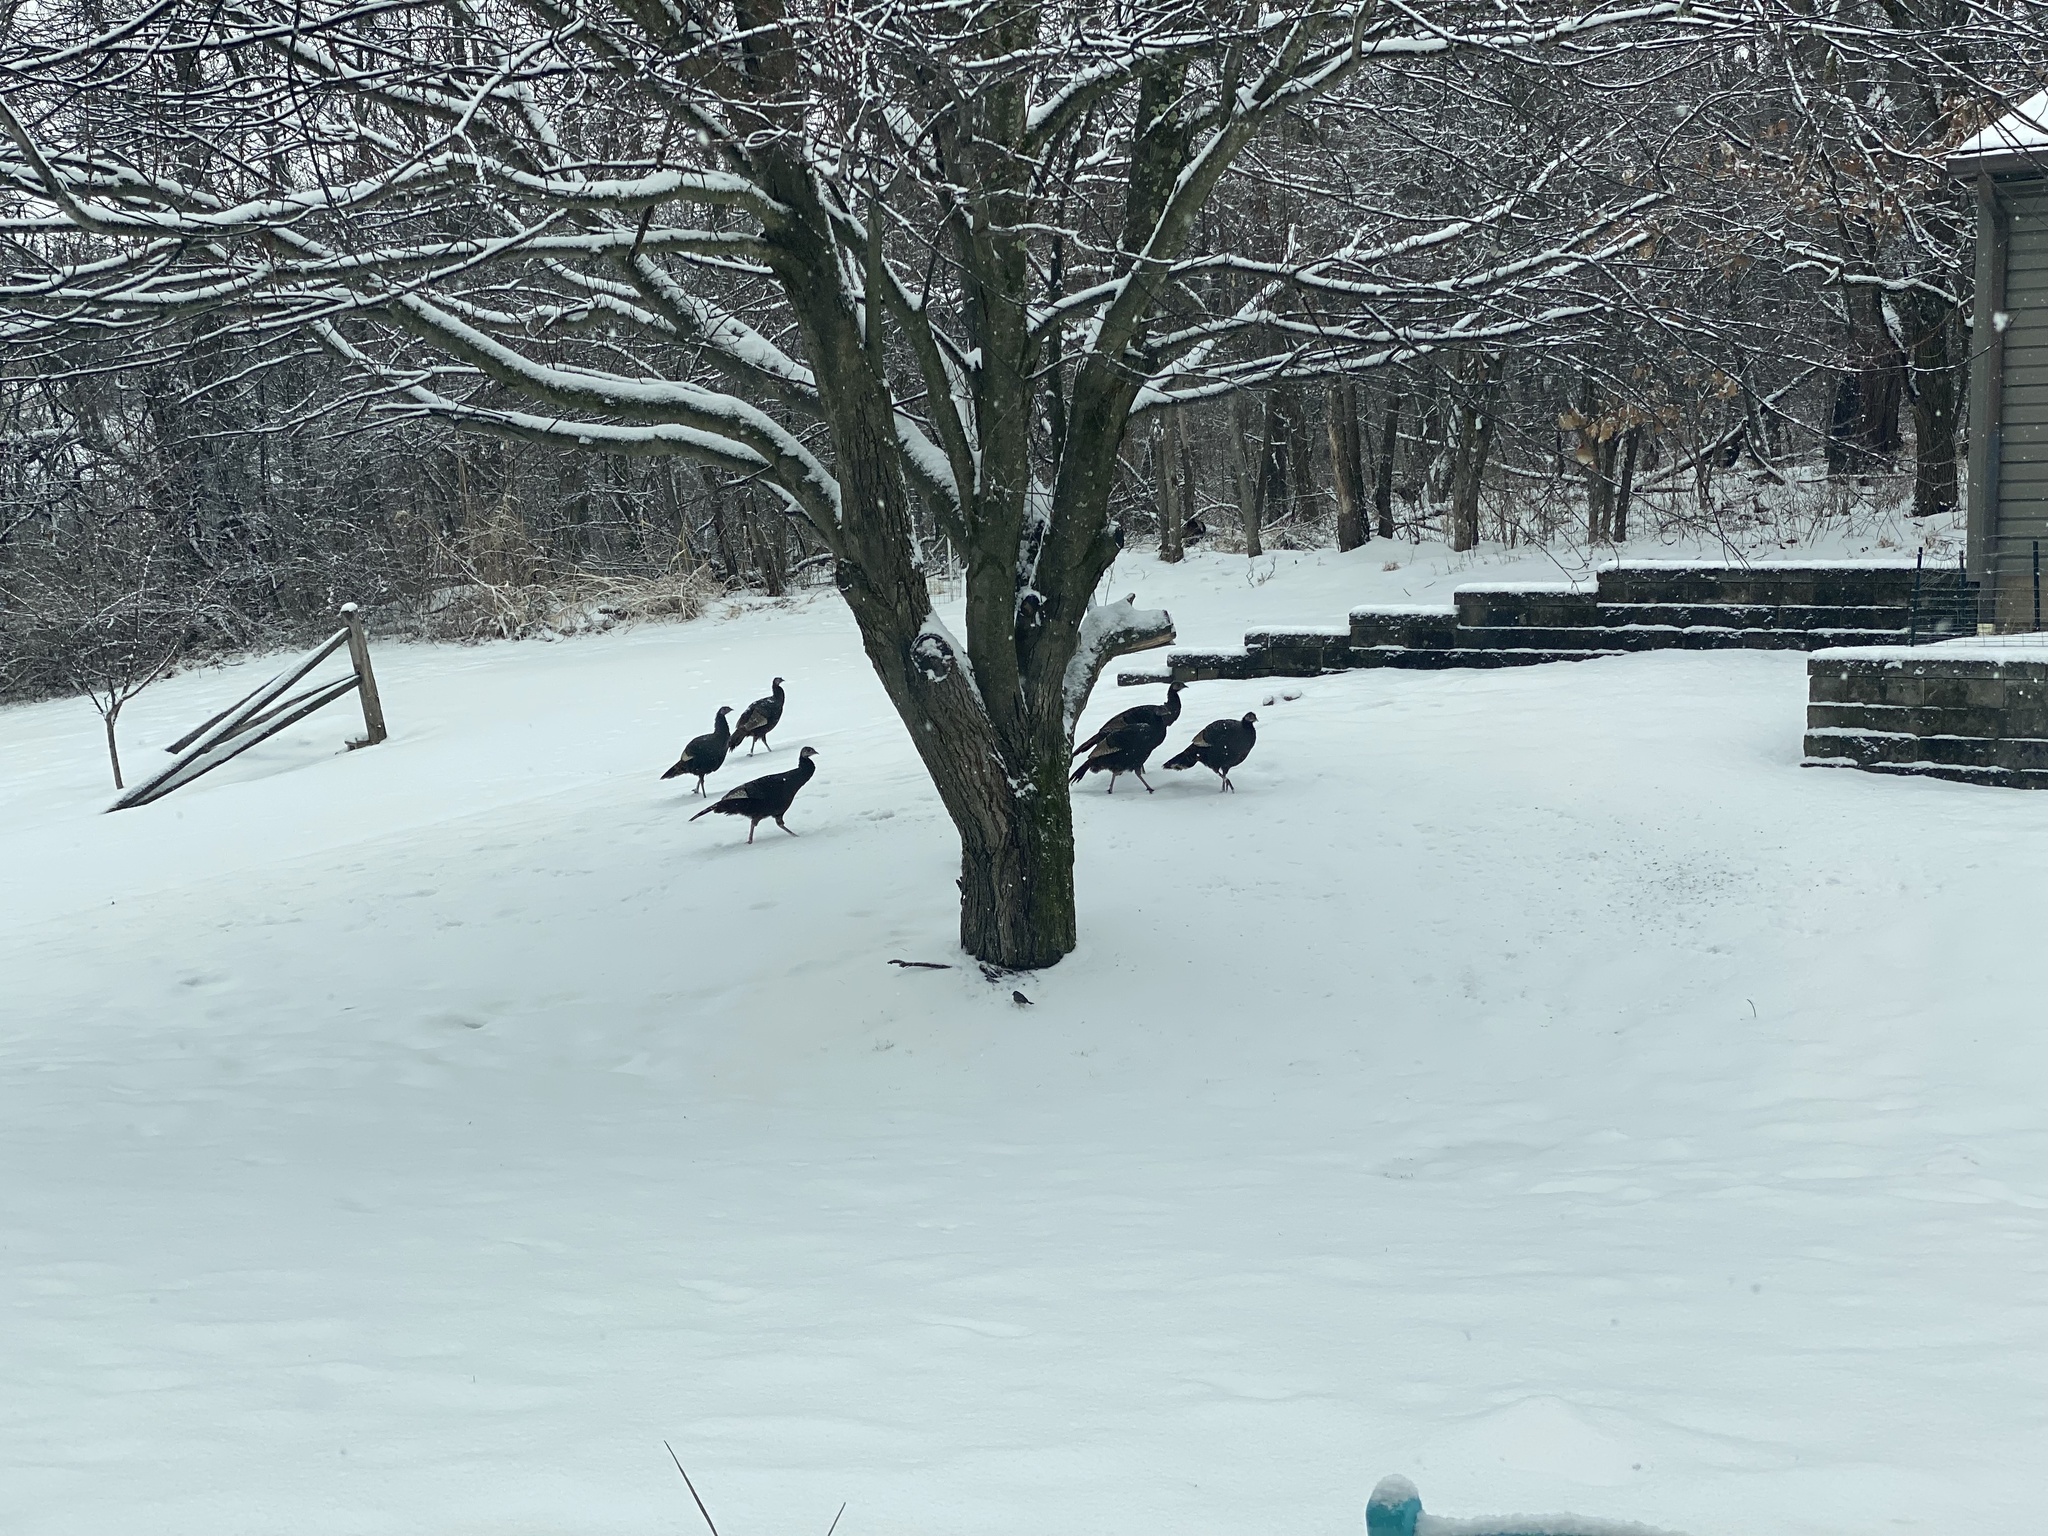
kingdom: Animalia
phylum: Chordata
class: Aves
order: Galliformes
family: Phasianidae
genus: Meleagris
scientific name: Meleagris gallopavo
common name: Wild turkey
